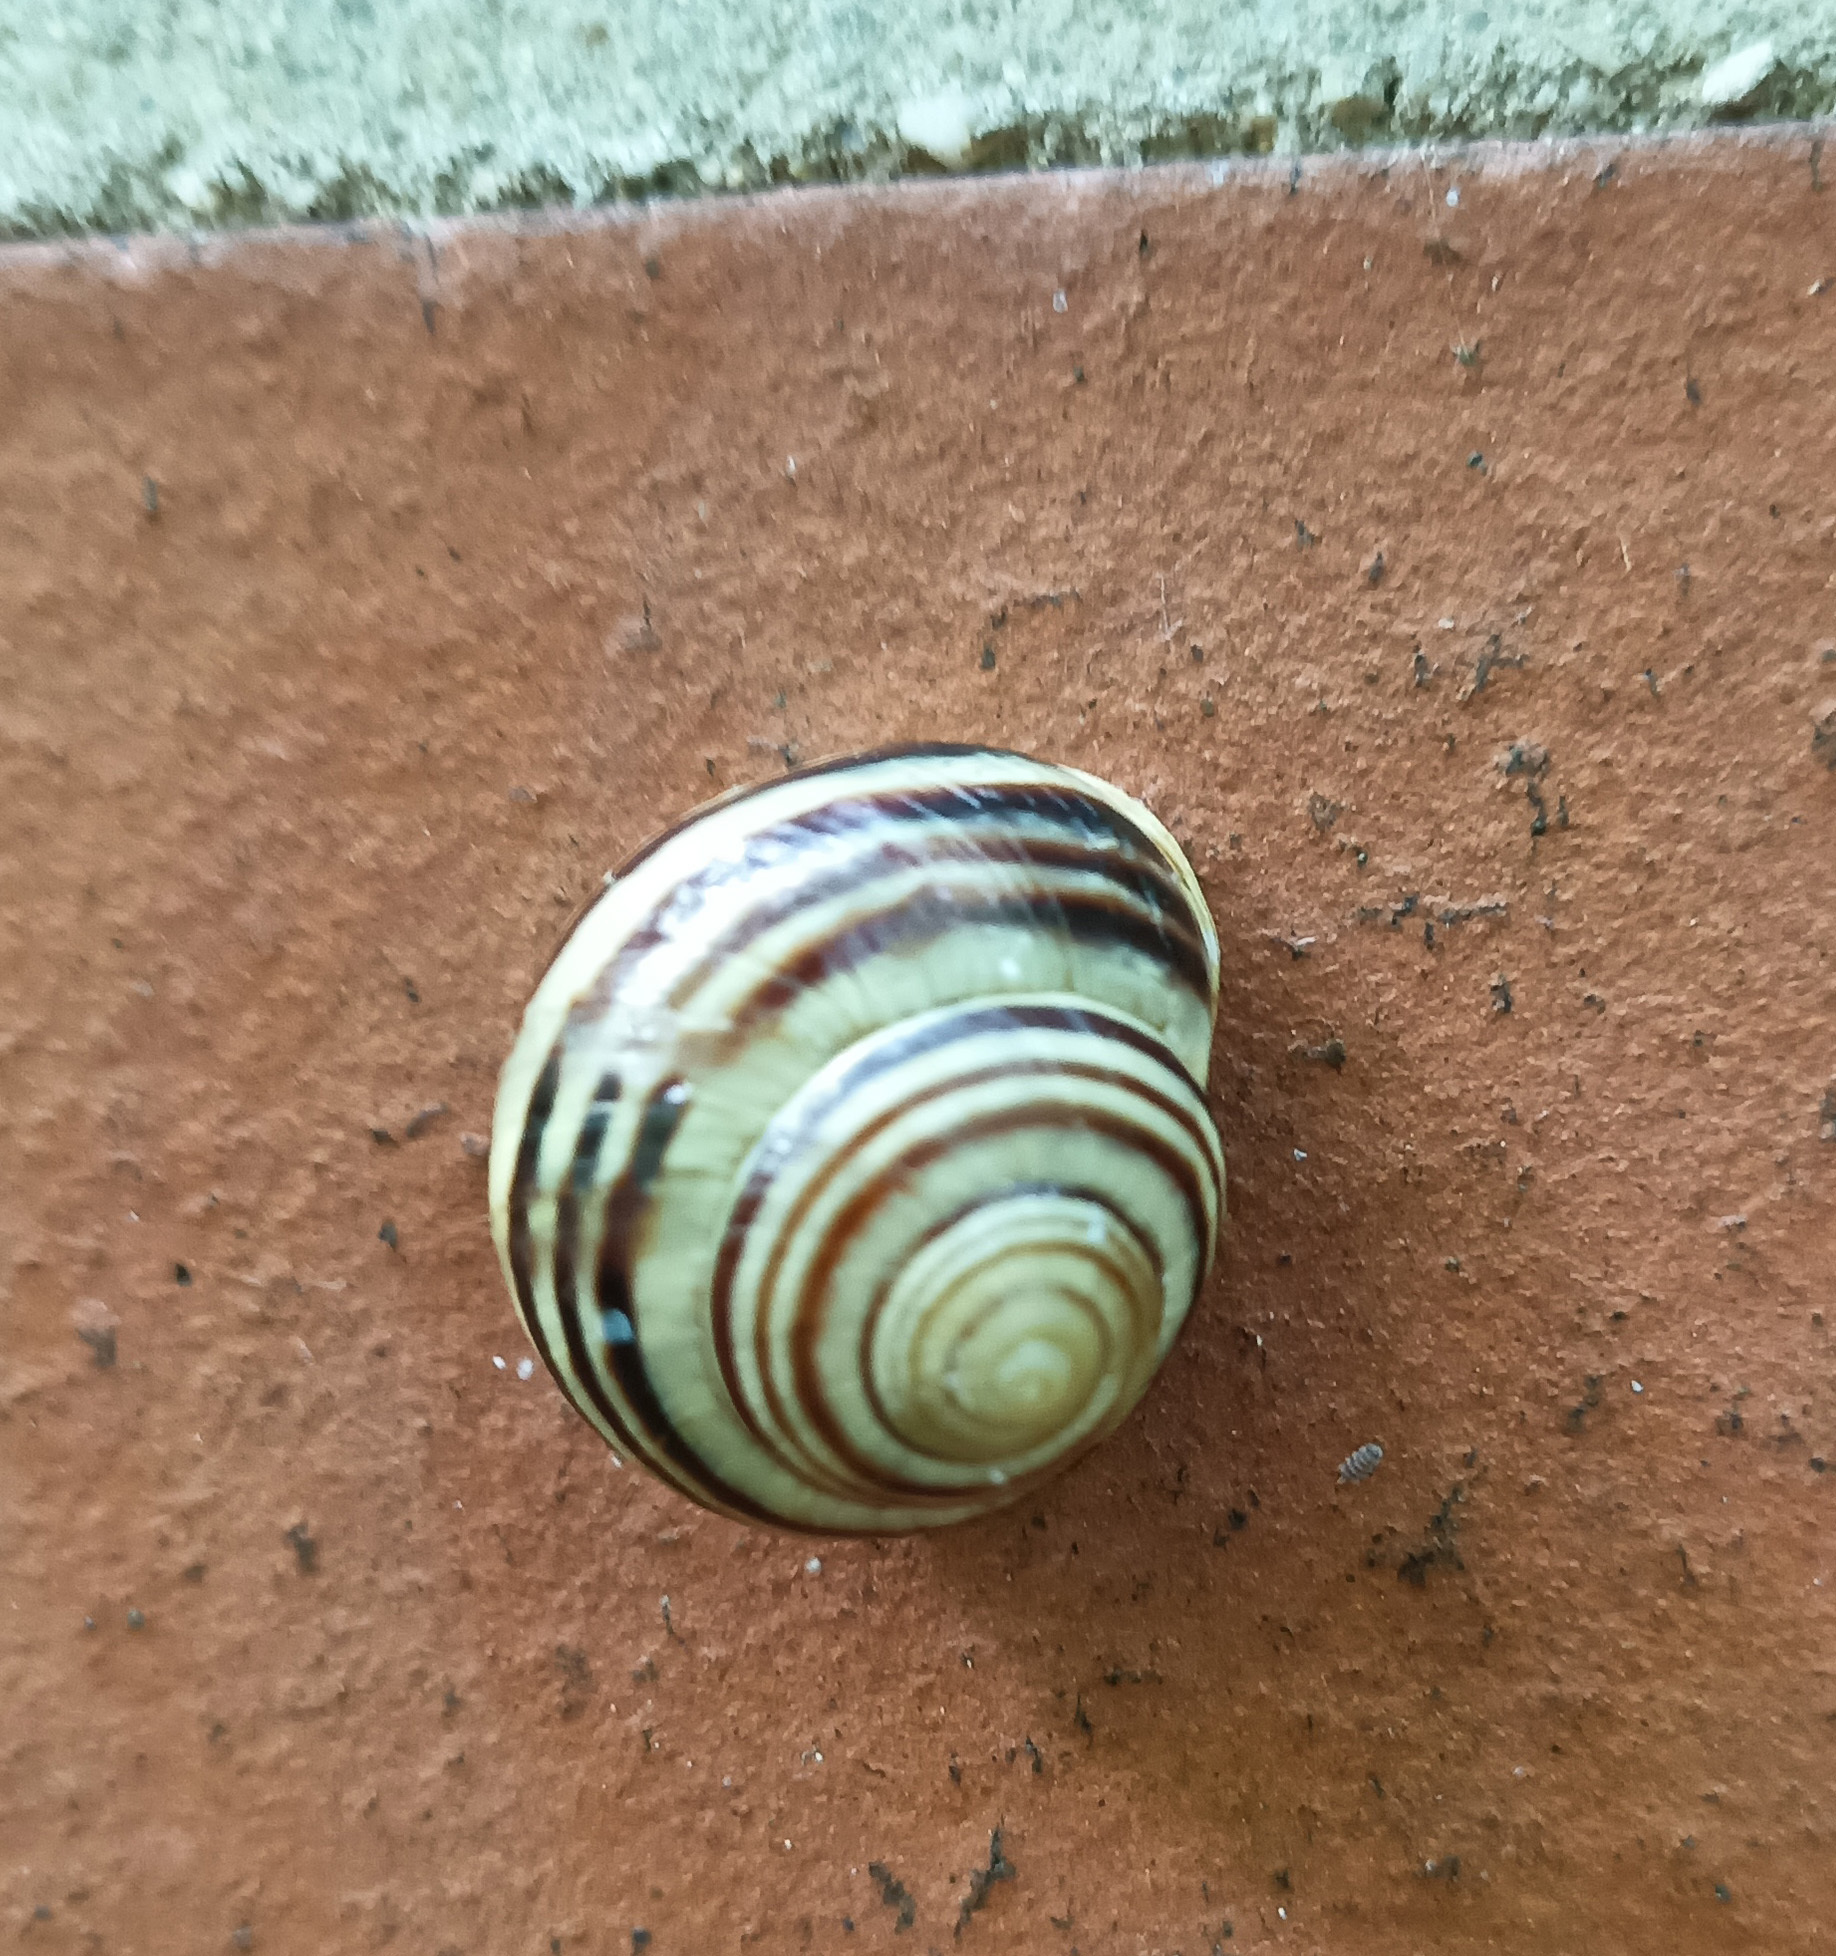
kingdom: Animalia
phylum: Mollusca
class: Gastropoda
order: Stylommatophora
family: Helicidae
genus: Cepaea
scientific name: Cepaea hortensis
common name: White-lip gardensnail
